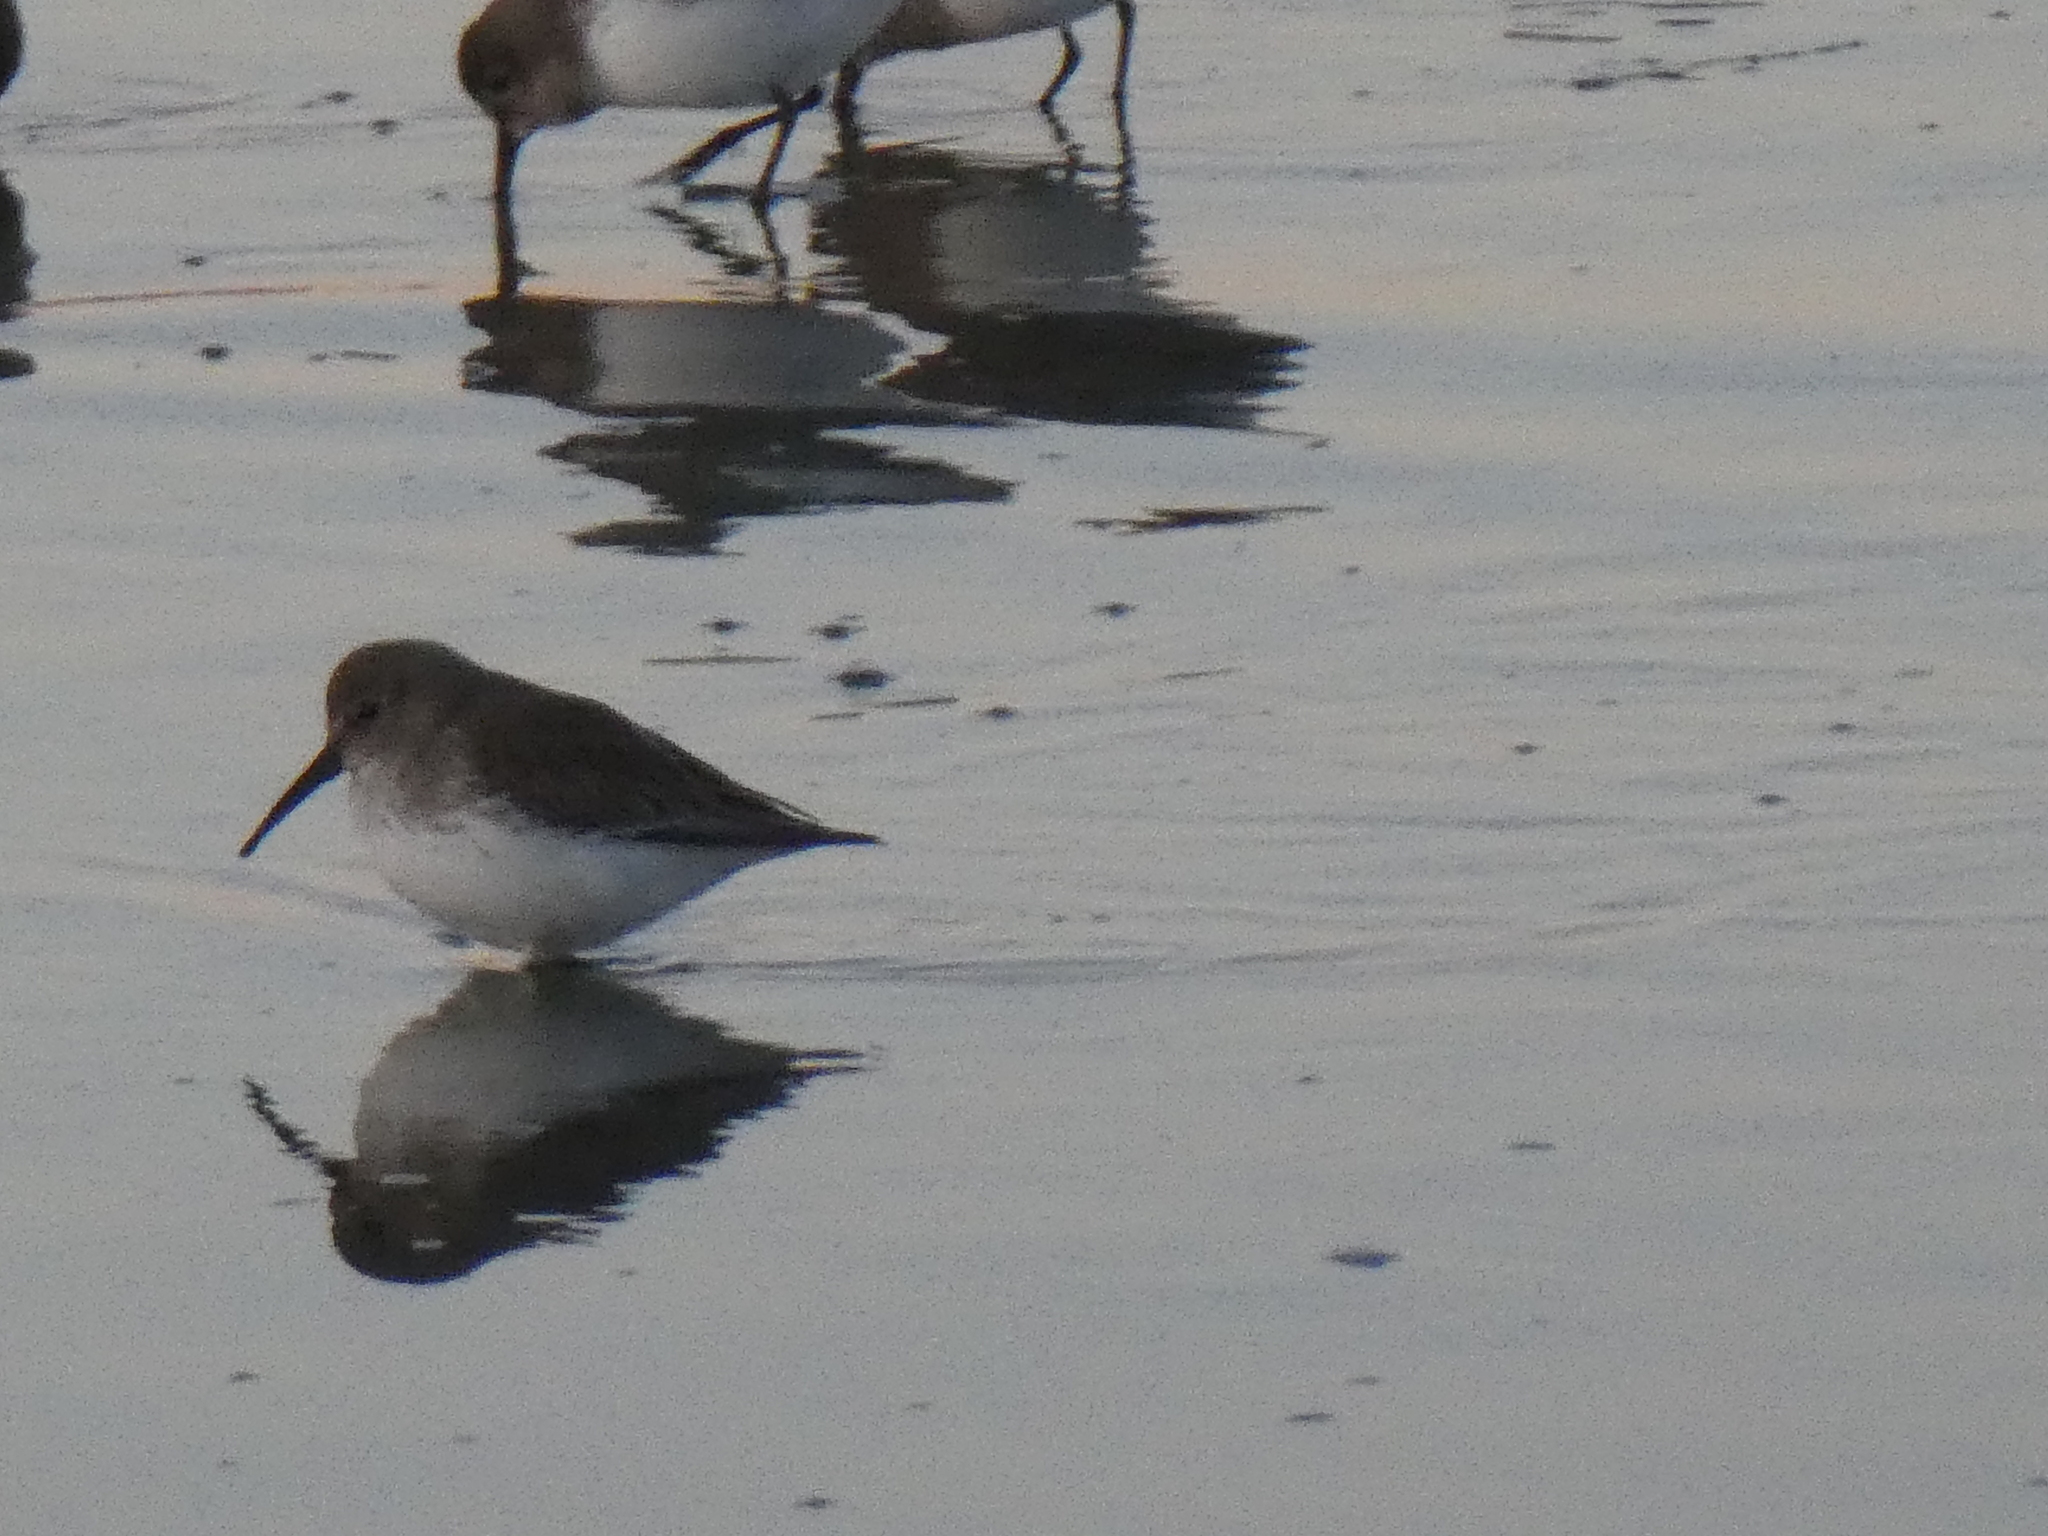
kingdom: Animalia
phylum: Chordata
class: Aves
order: Charadriiformes
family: Scolopacidae
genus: Calidris
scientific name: Calidris alpina
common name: Dunlin
